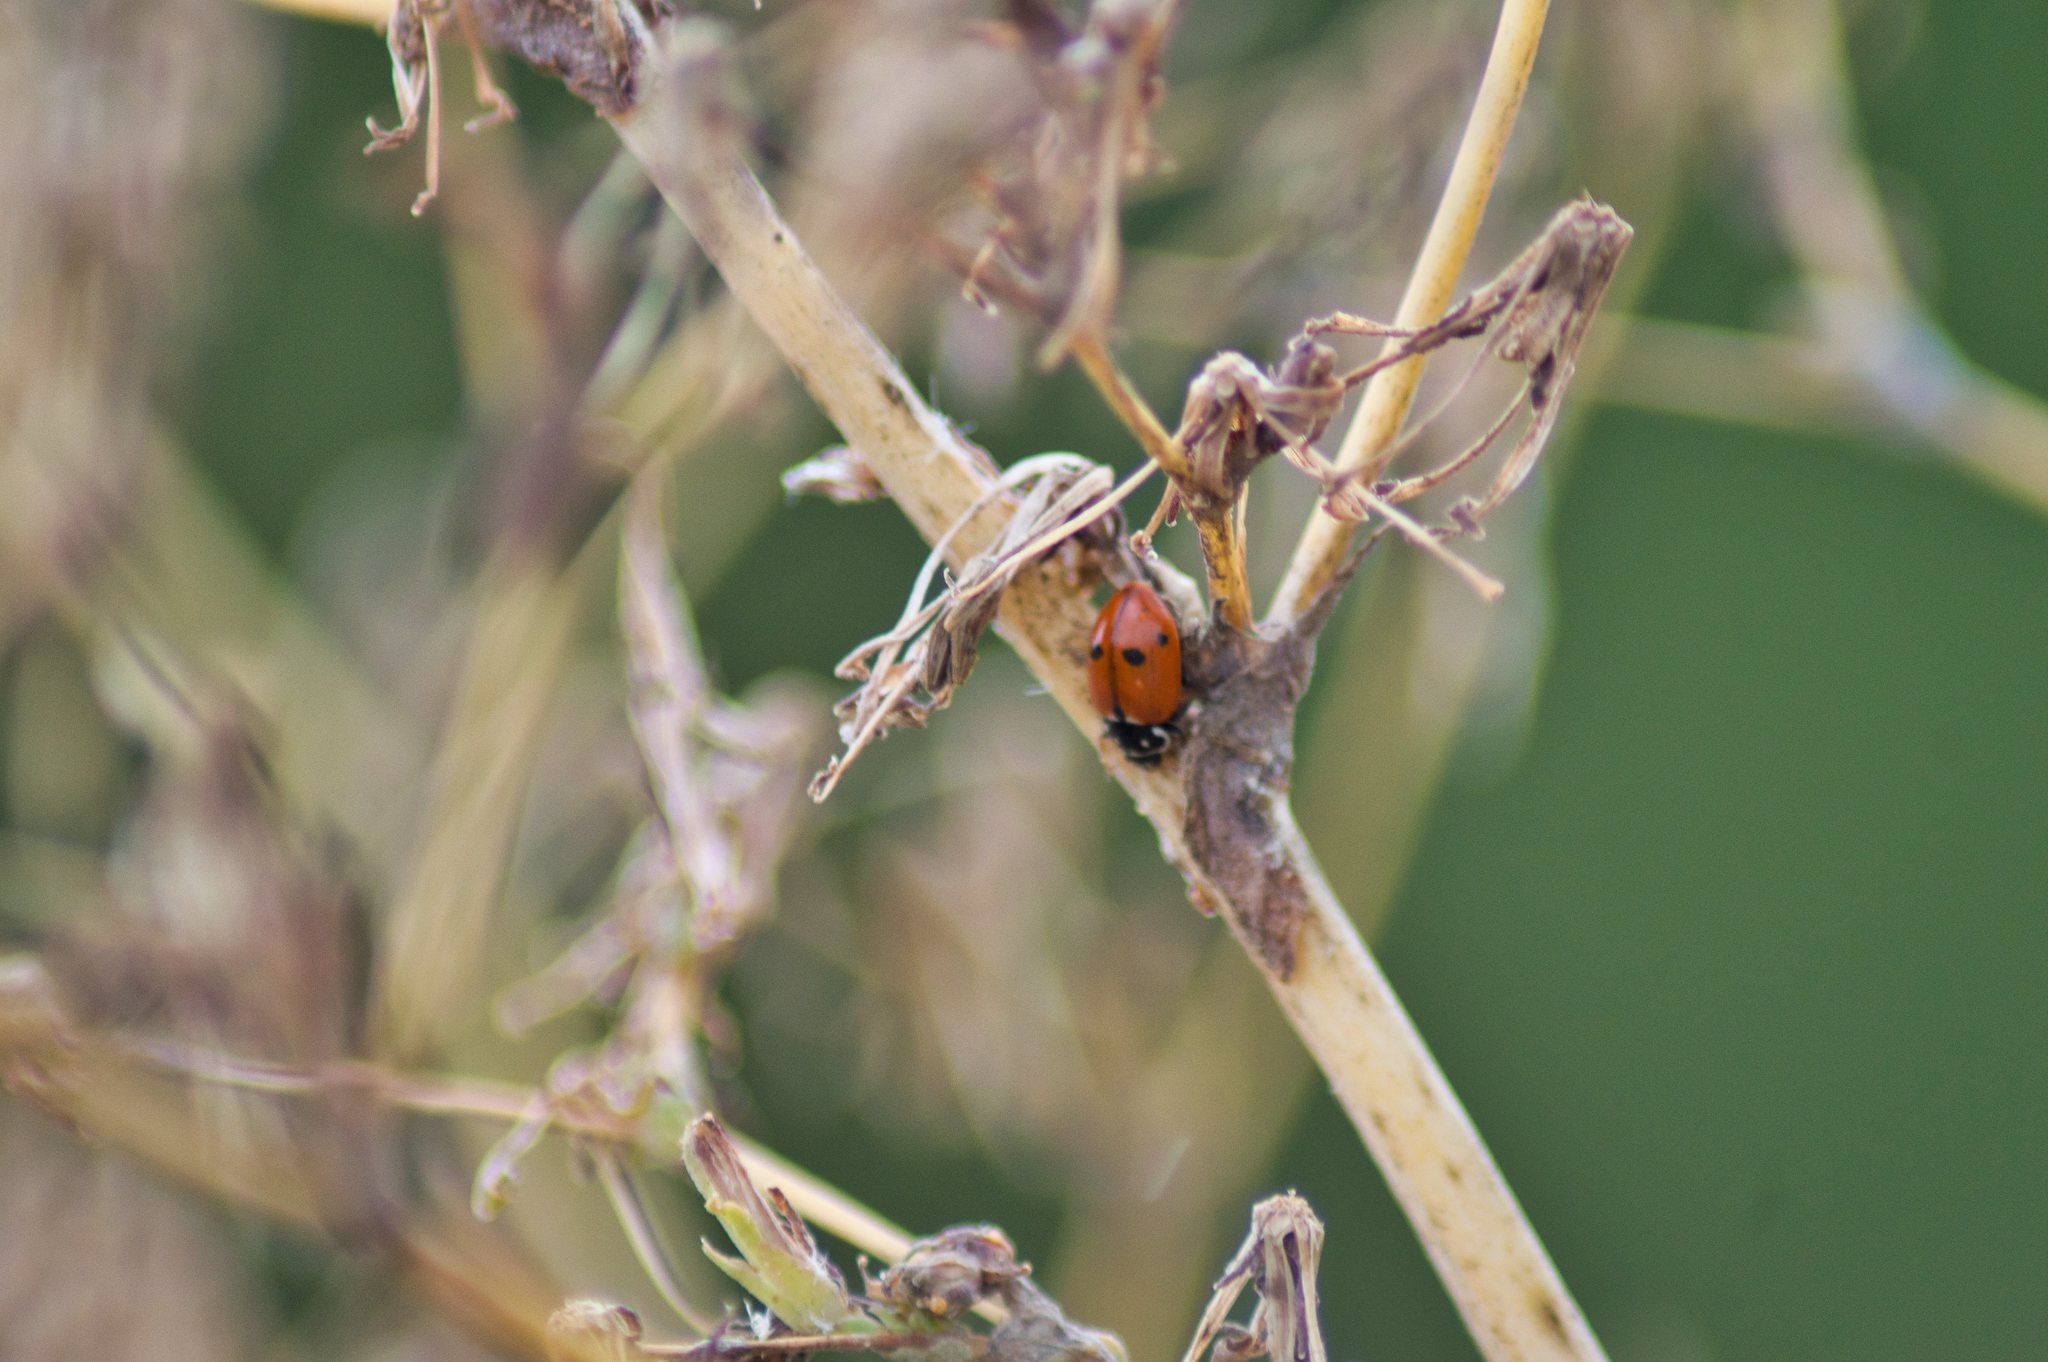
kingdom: Animalia
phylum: Arthropoda
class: Insecta
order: Coleoptera
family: Coccinellidae
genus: Hippodamia
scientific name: Hippodamia variegata
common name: Ladybird beetle
